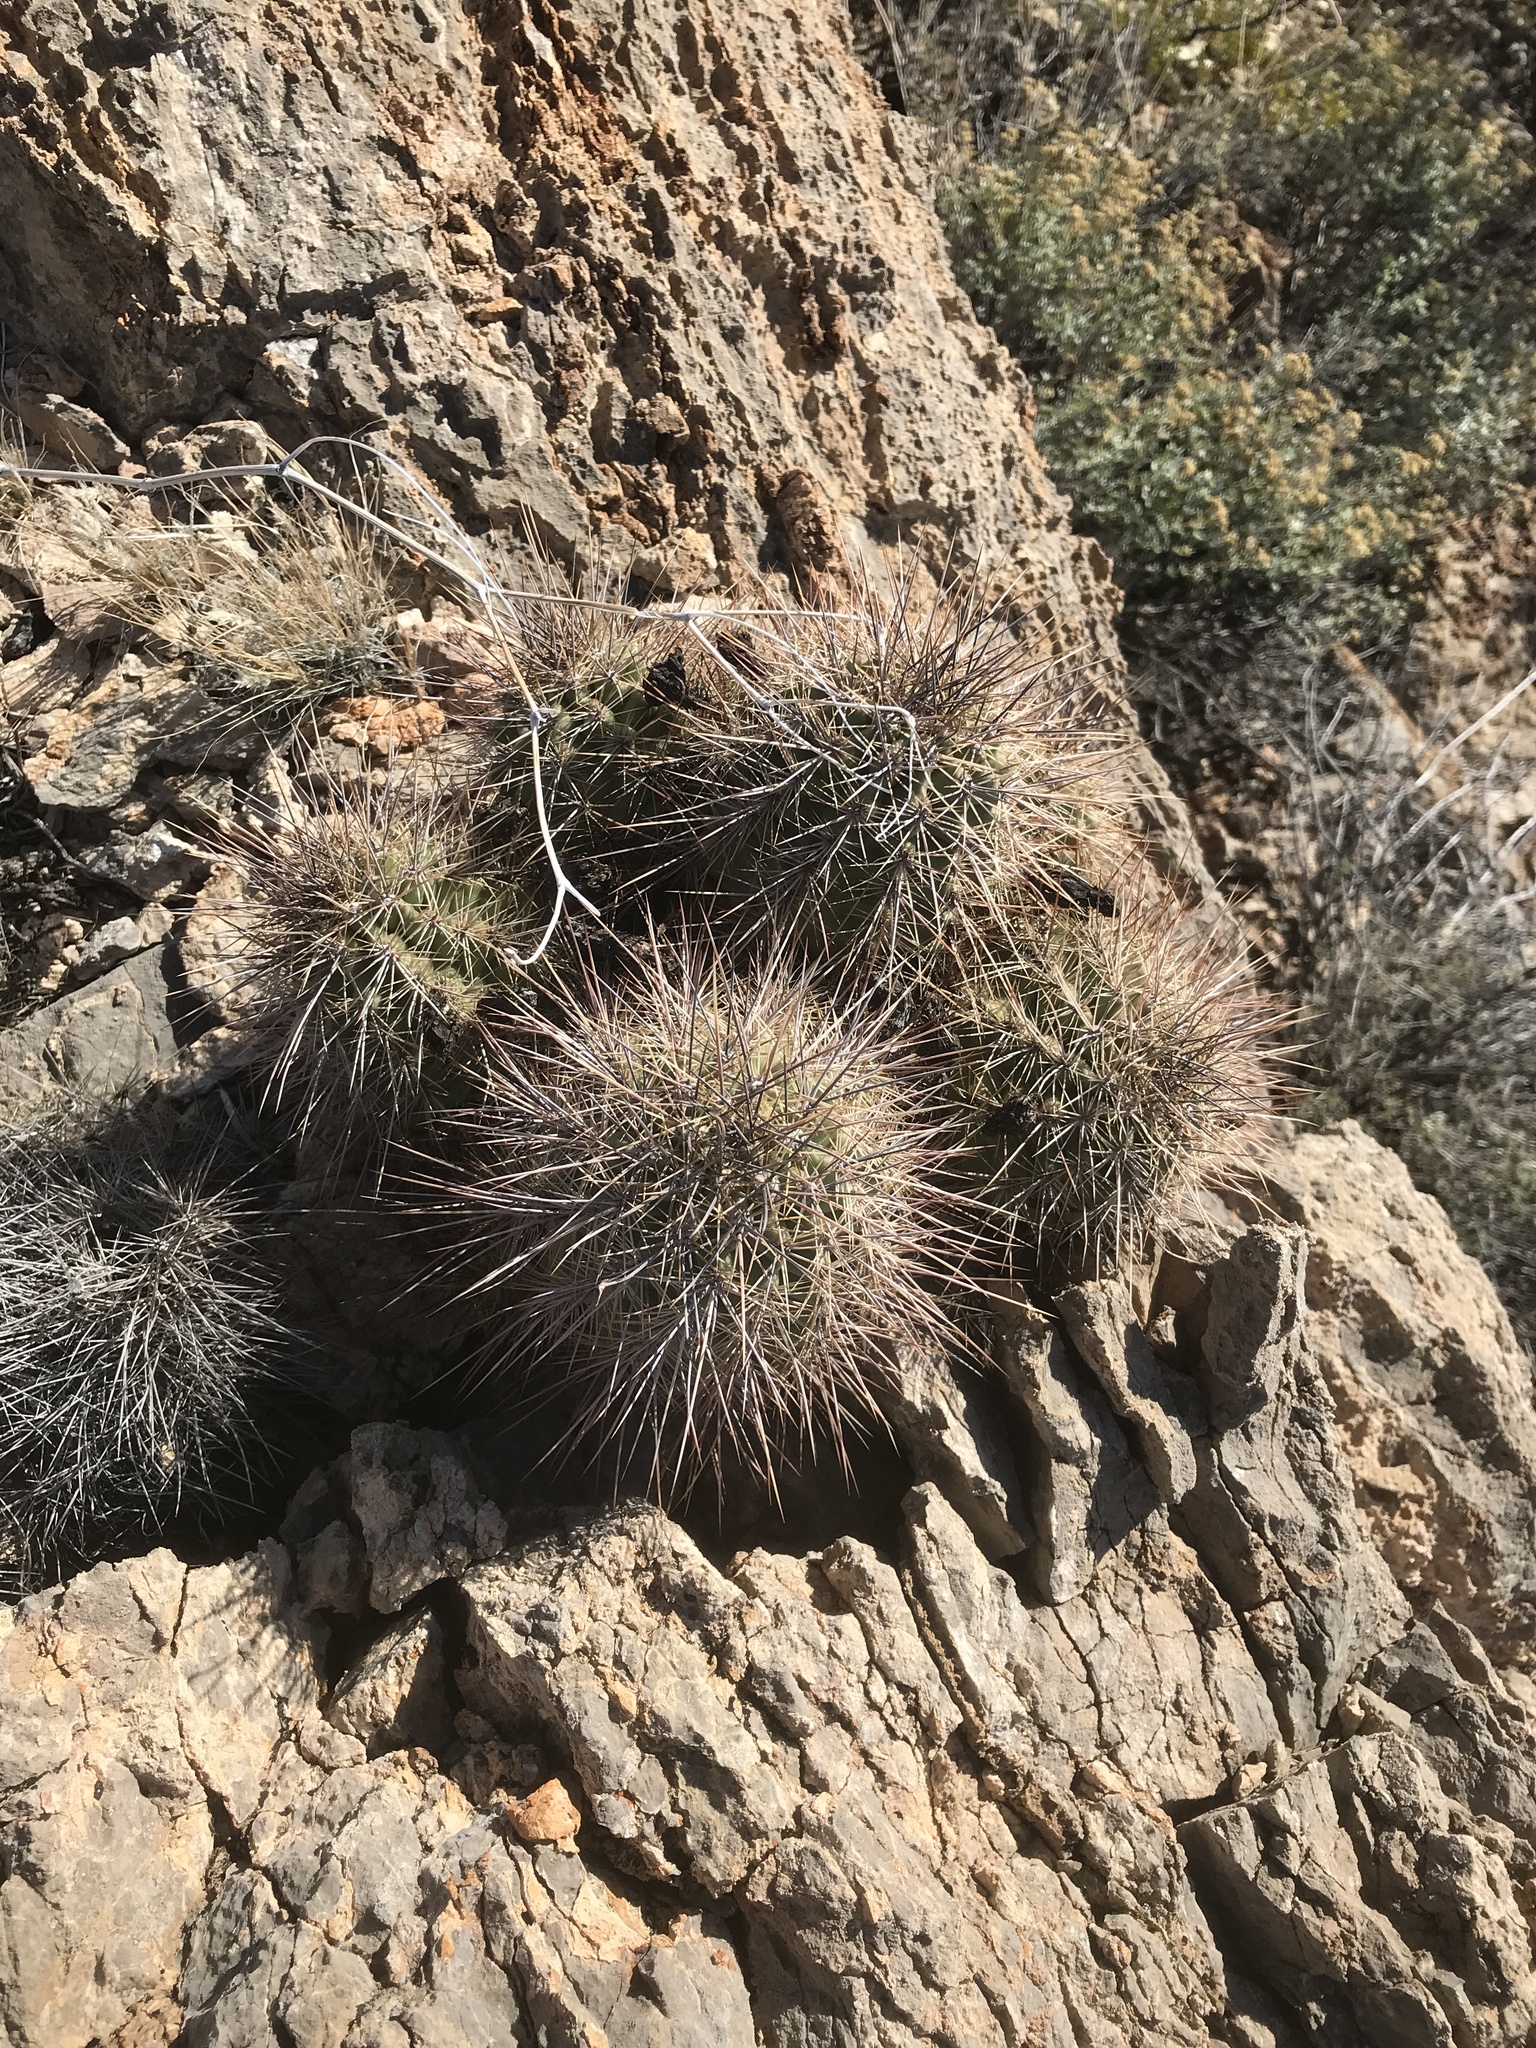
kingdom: Plantae
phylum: Tracheophyta
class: Magnoliopsida
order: Caryophyllales
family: Cactaceae
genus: Echinocereus
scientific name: Echinocereus coccineus
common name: Scarlet hedgehog cactus
